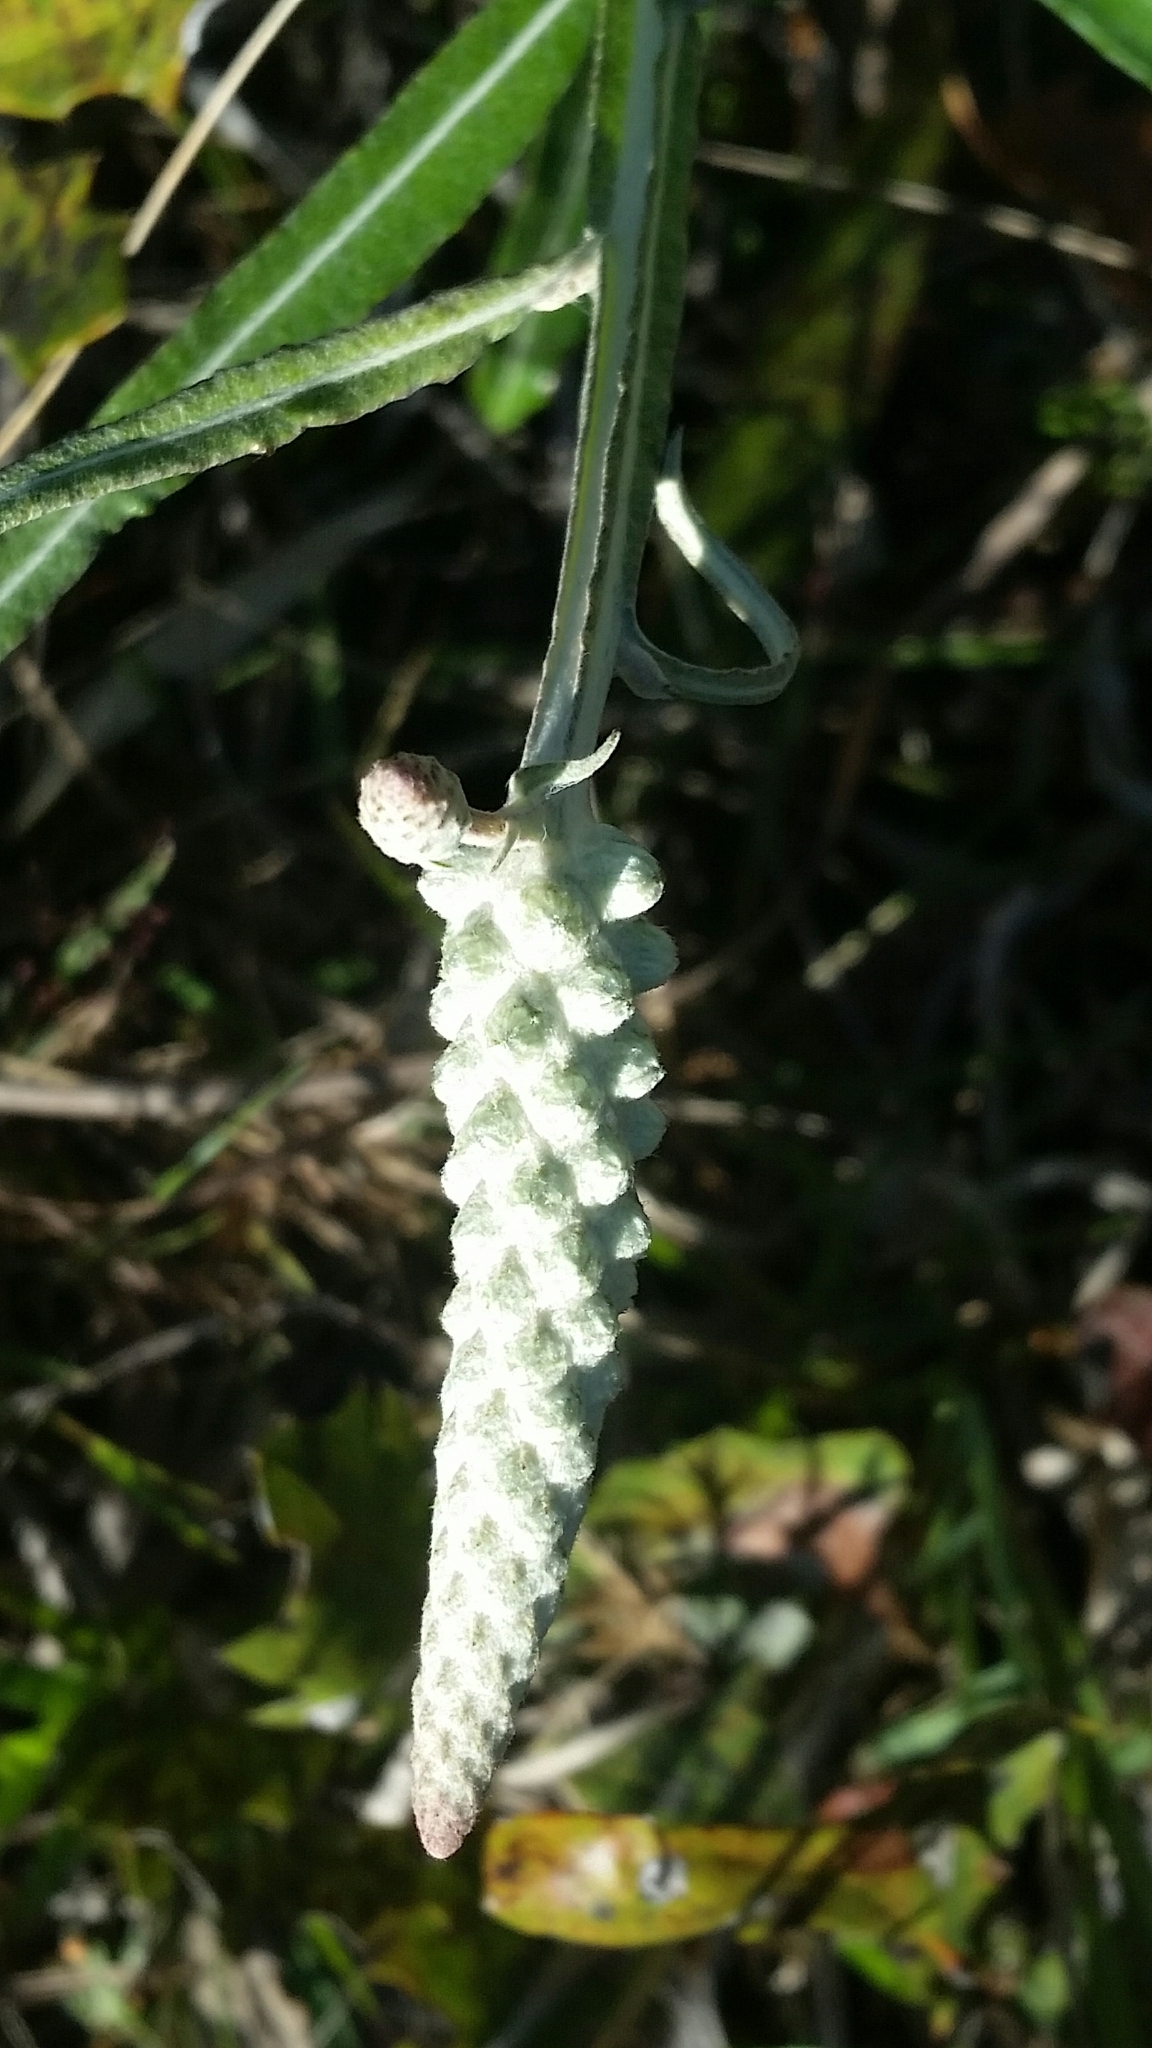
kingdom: Plantae
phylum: Tracheophyta
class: Magnoliopsida
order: Asterales
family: Asteraceae
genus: Pterocaulon
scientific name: Pterocaulon pycnostachyum
